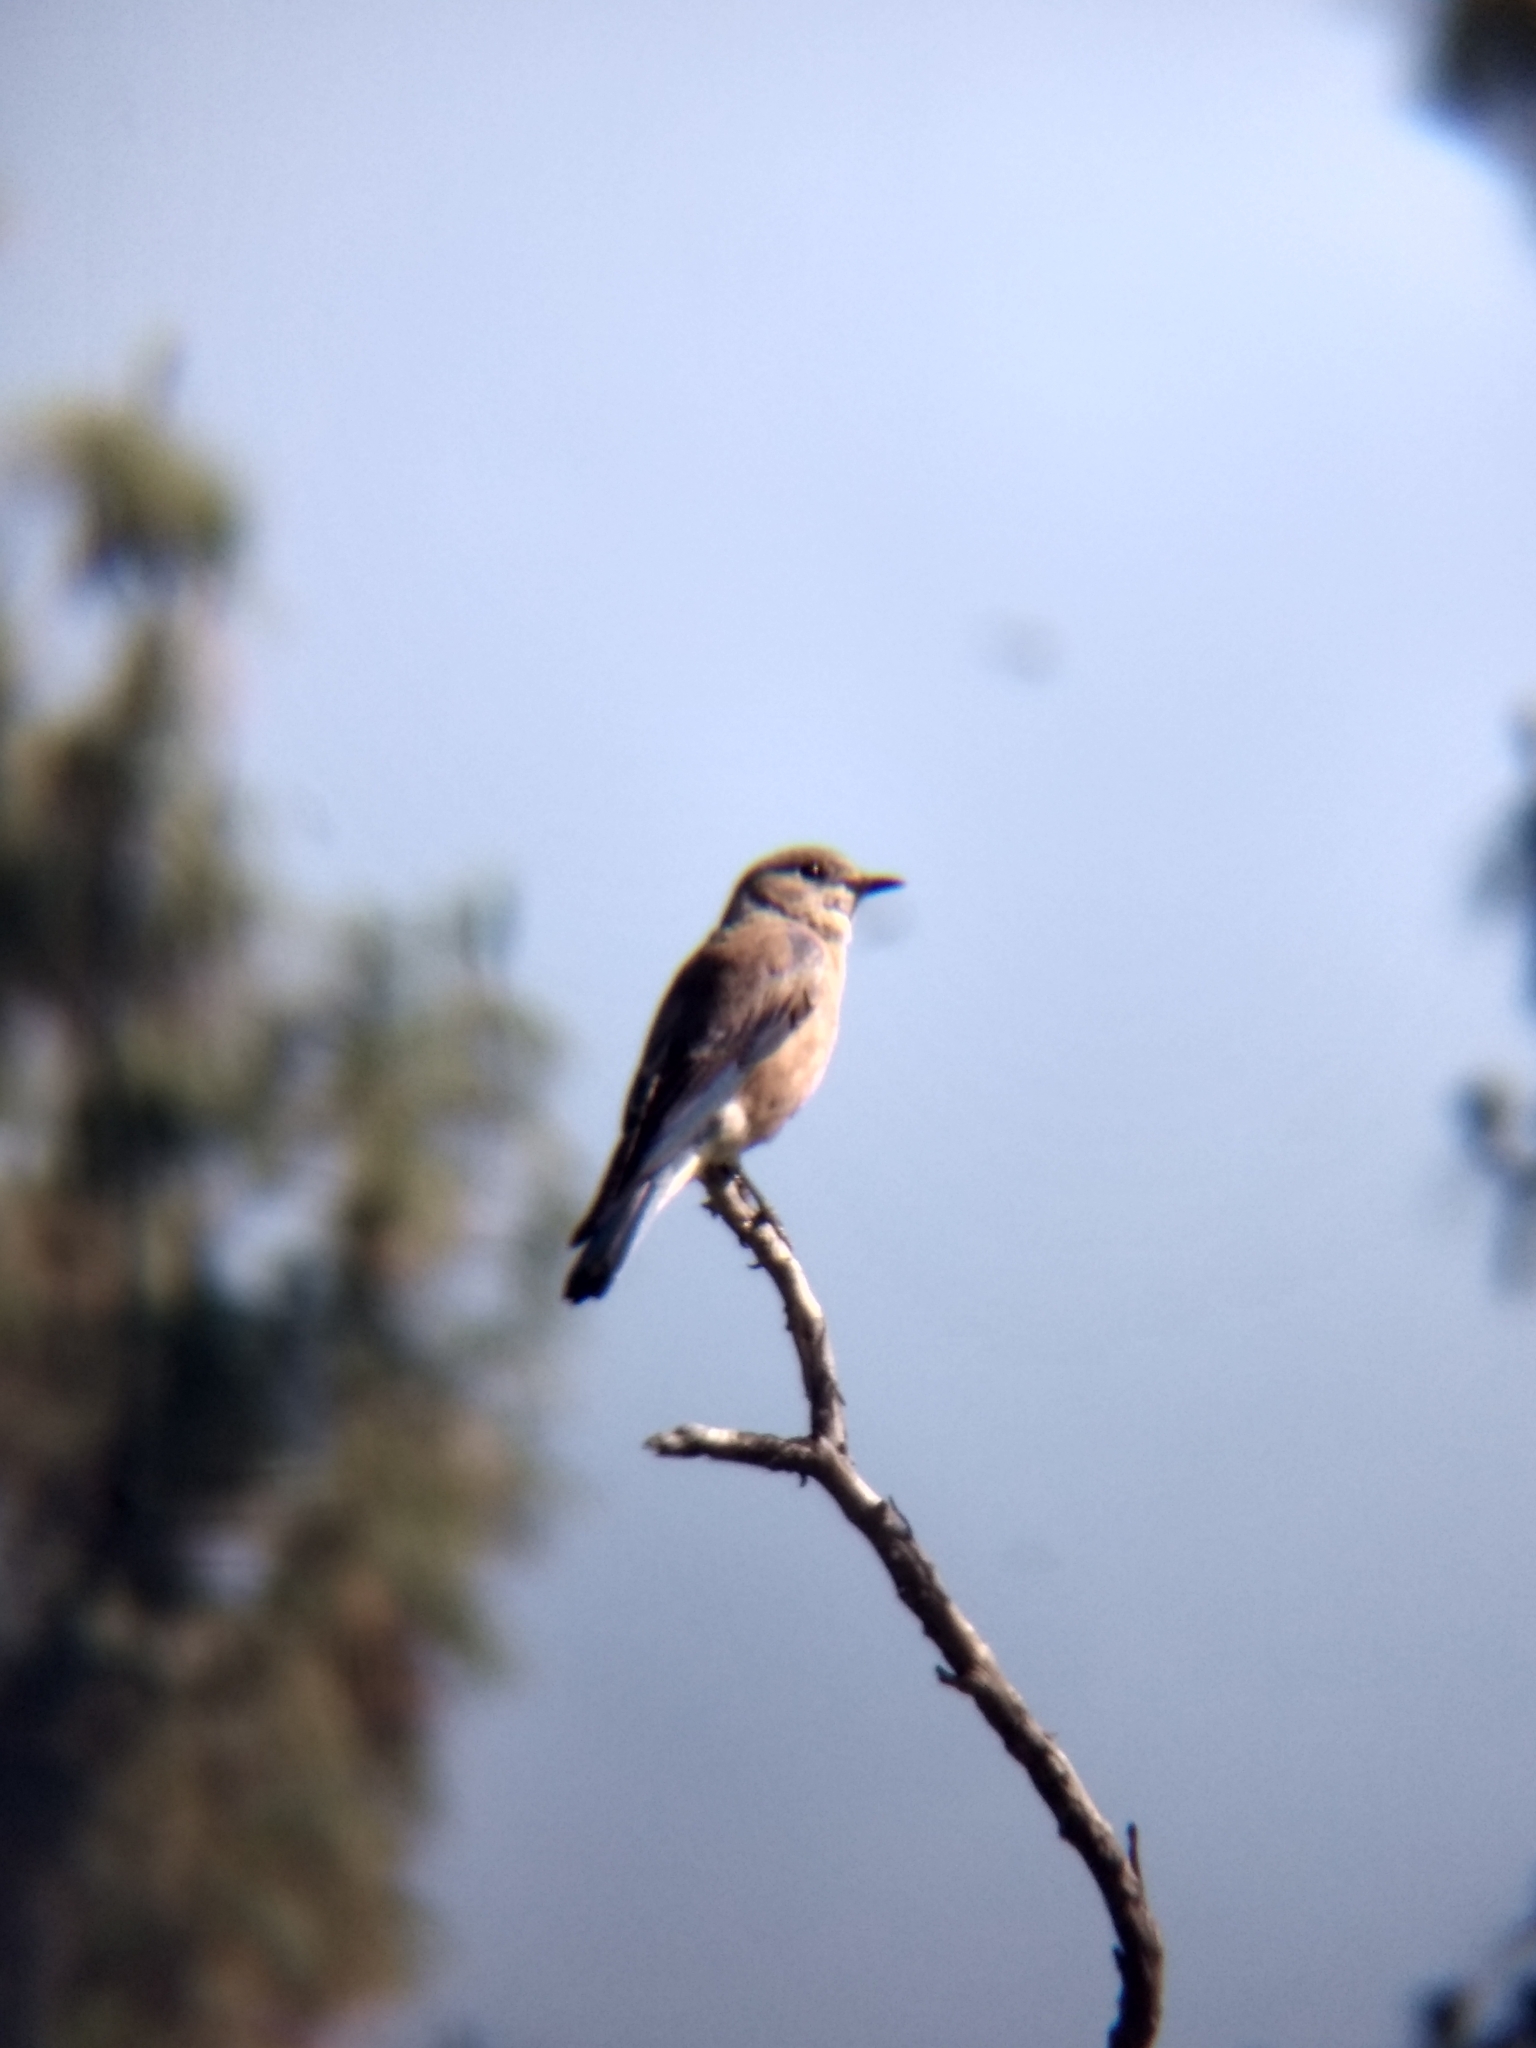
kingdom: Animalia
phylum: Chordata
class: Aves
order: Passeriformes
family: Turdidae
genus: Sialia
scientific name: Sialia mexicana
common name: Western bluebird
